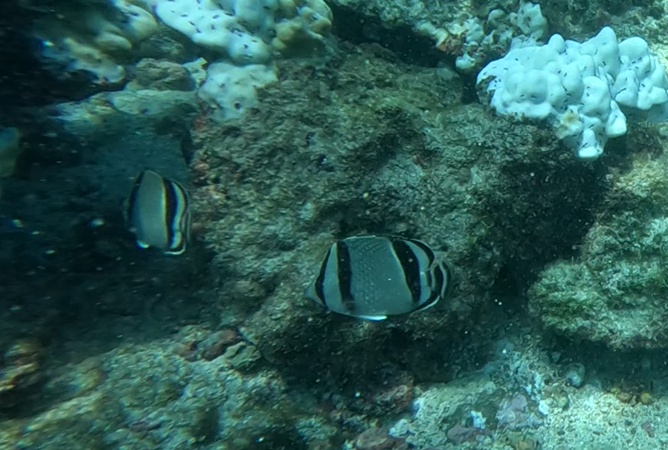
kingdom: Animalia
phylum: Chordata
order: Perciformes
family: Chaetodontidae
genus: Chaetodon
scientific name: Chaetodon humeralis
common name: Threebanded butterflyfish
